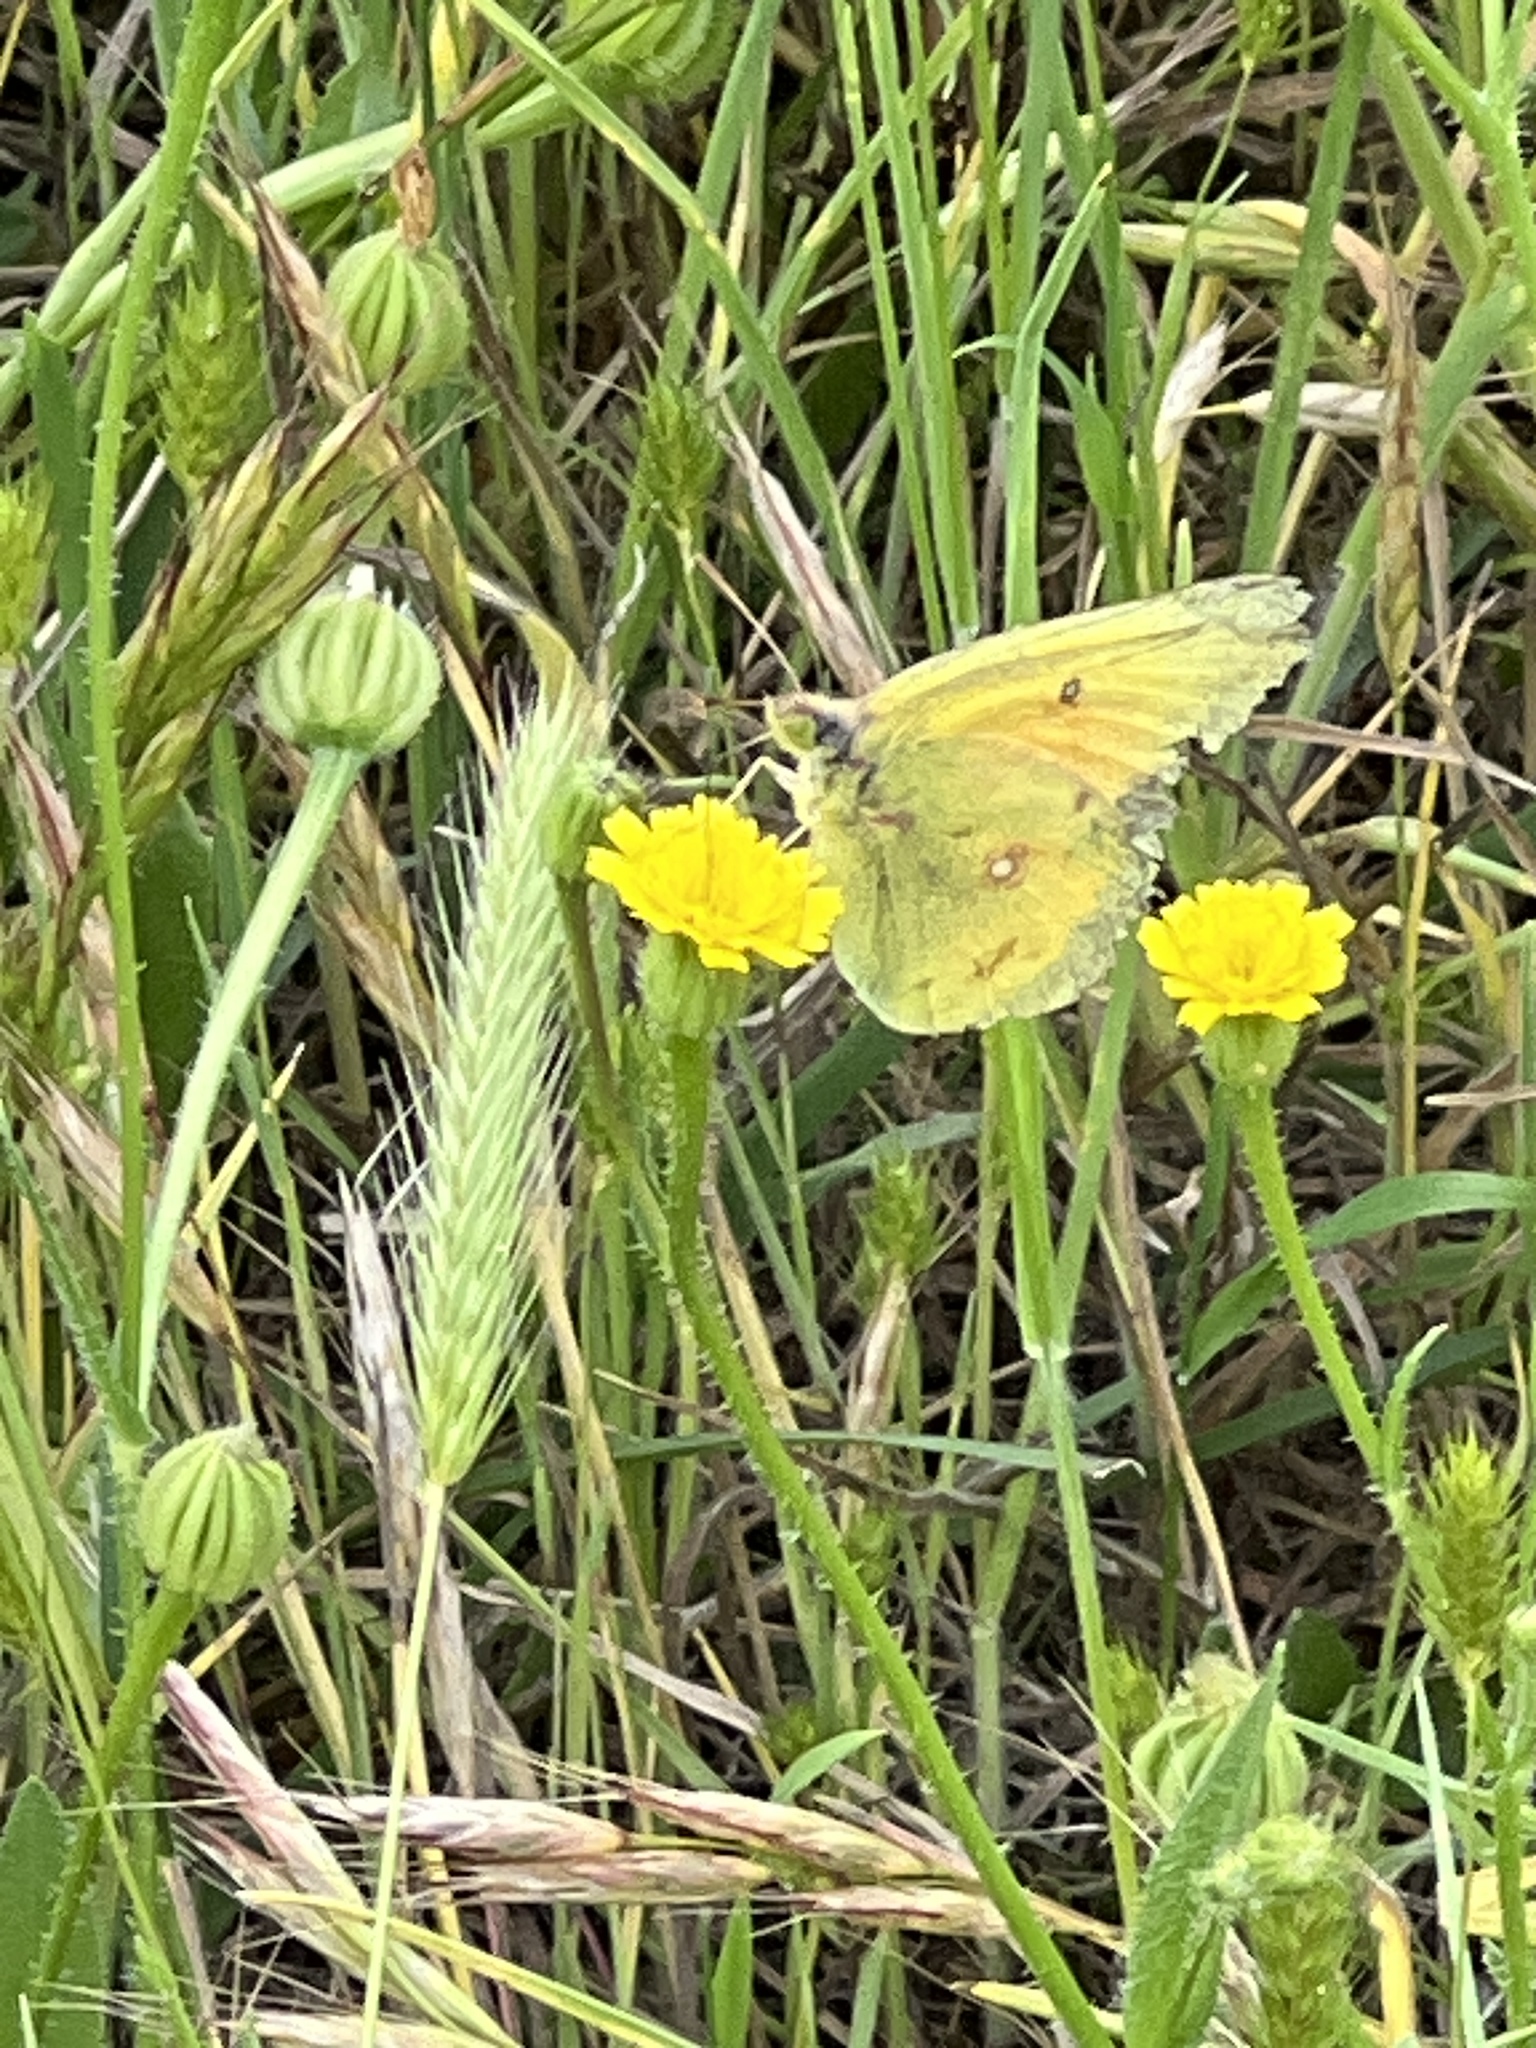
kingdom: Animalia
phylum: Arthropoda
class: Insecta
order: Lepidoptera
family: Pieridae
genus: Colias
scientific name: Colias eurytheme
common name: Alfalfa butterfly
